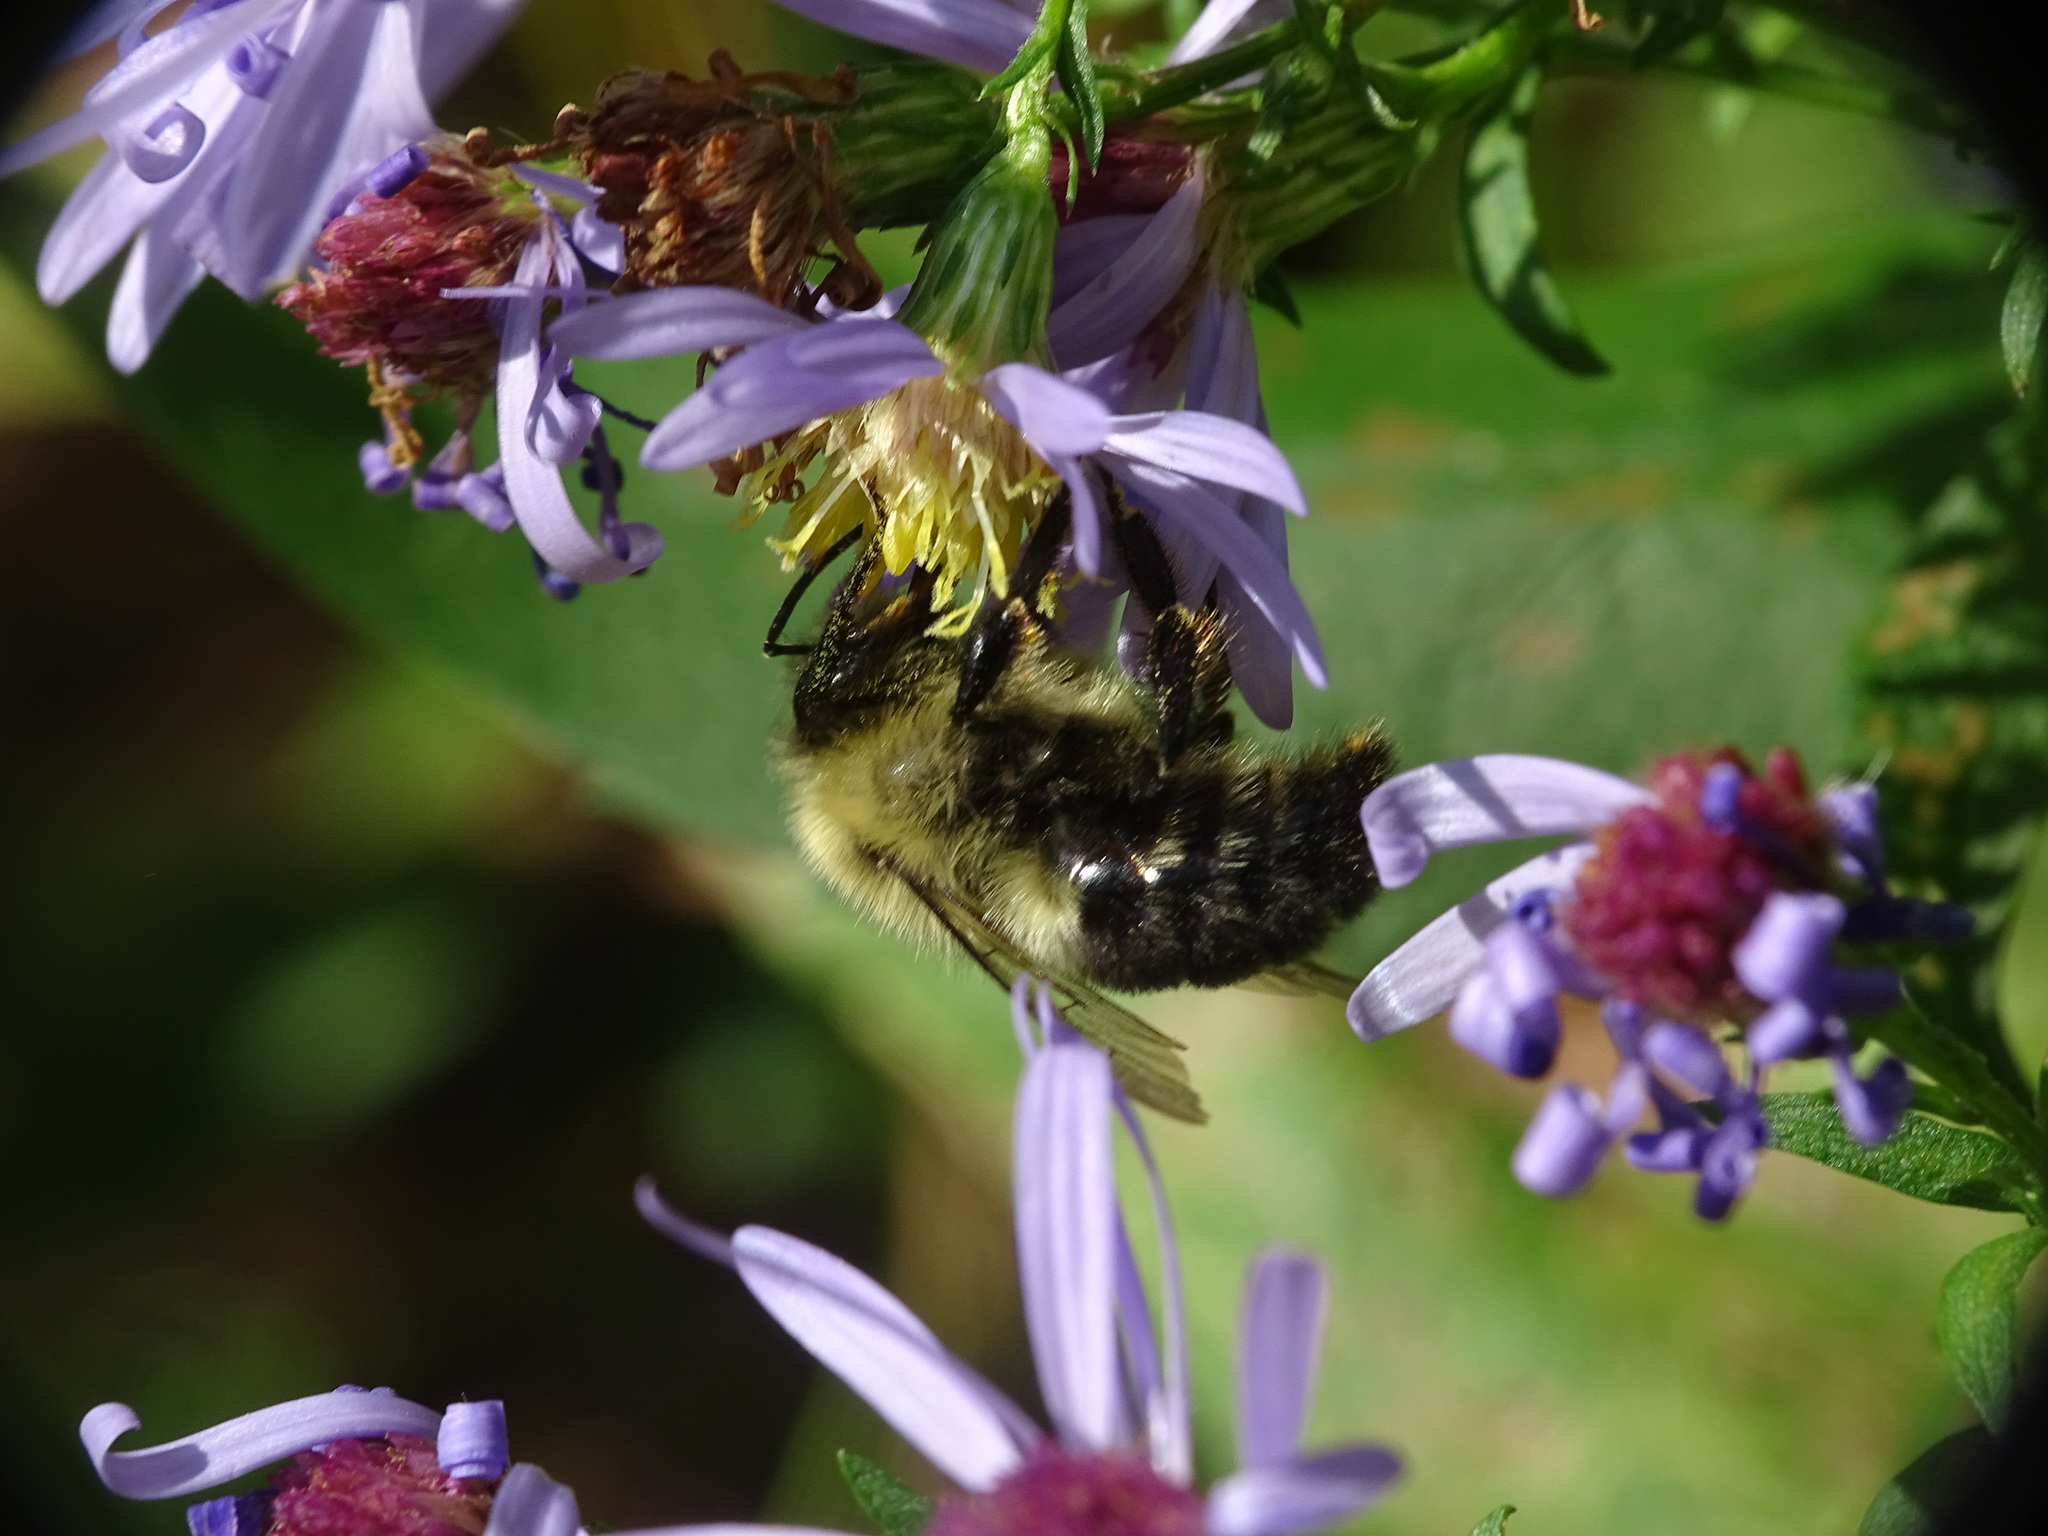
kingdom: Animalia
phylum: Arthropoda
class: Insecta
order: Hymenoptera
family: Apidae
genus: Bombus
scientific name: Bombus impatiens
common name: Common eastern bumble bee
